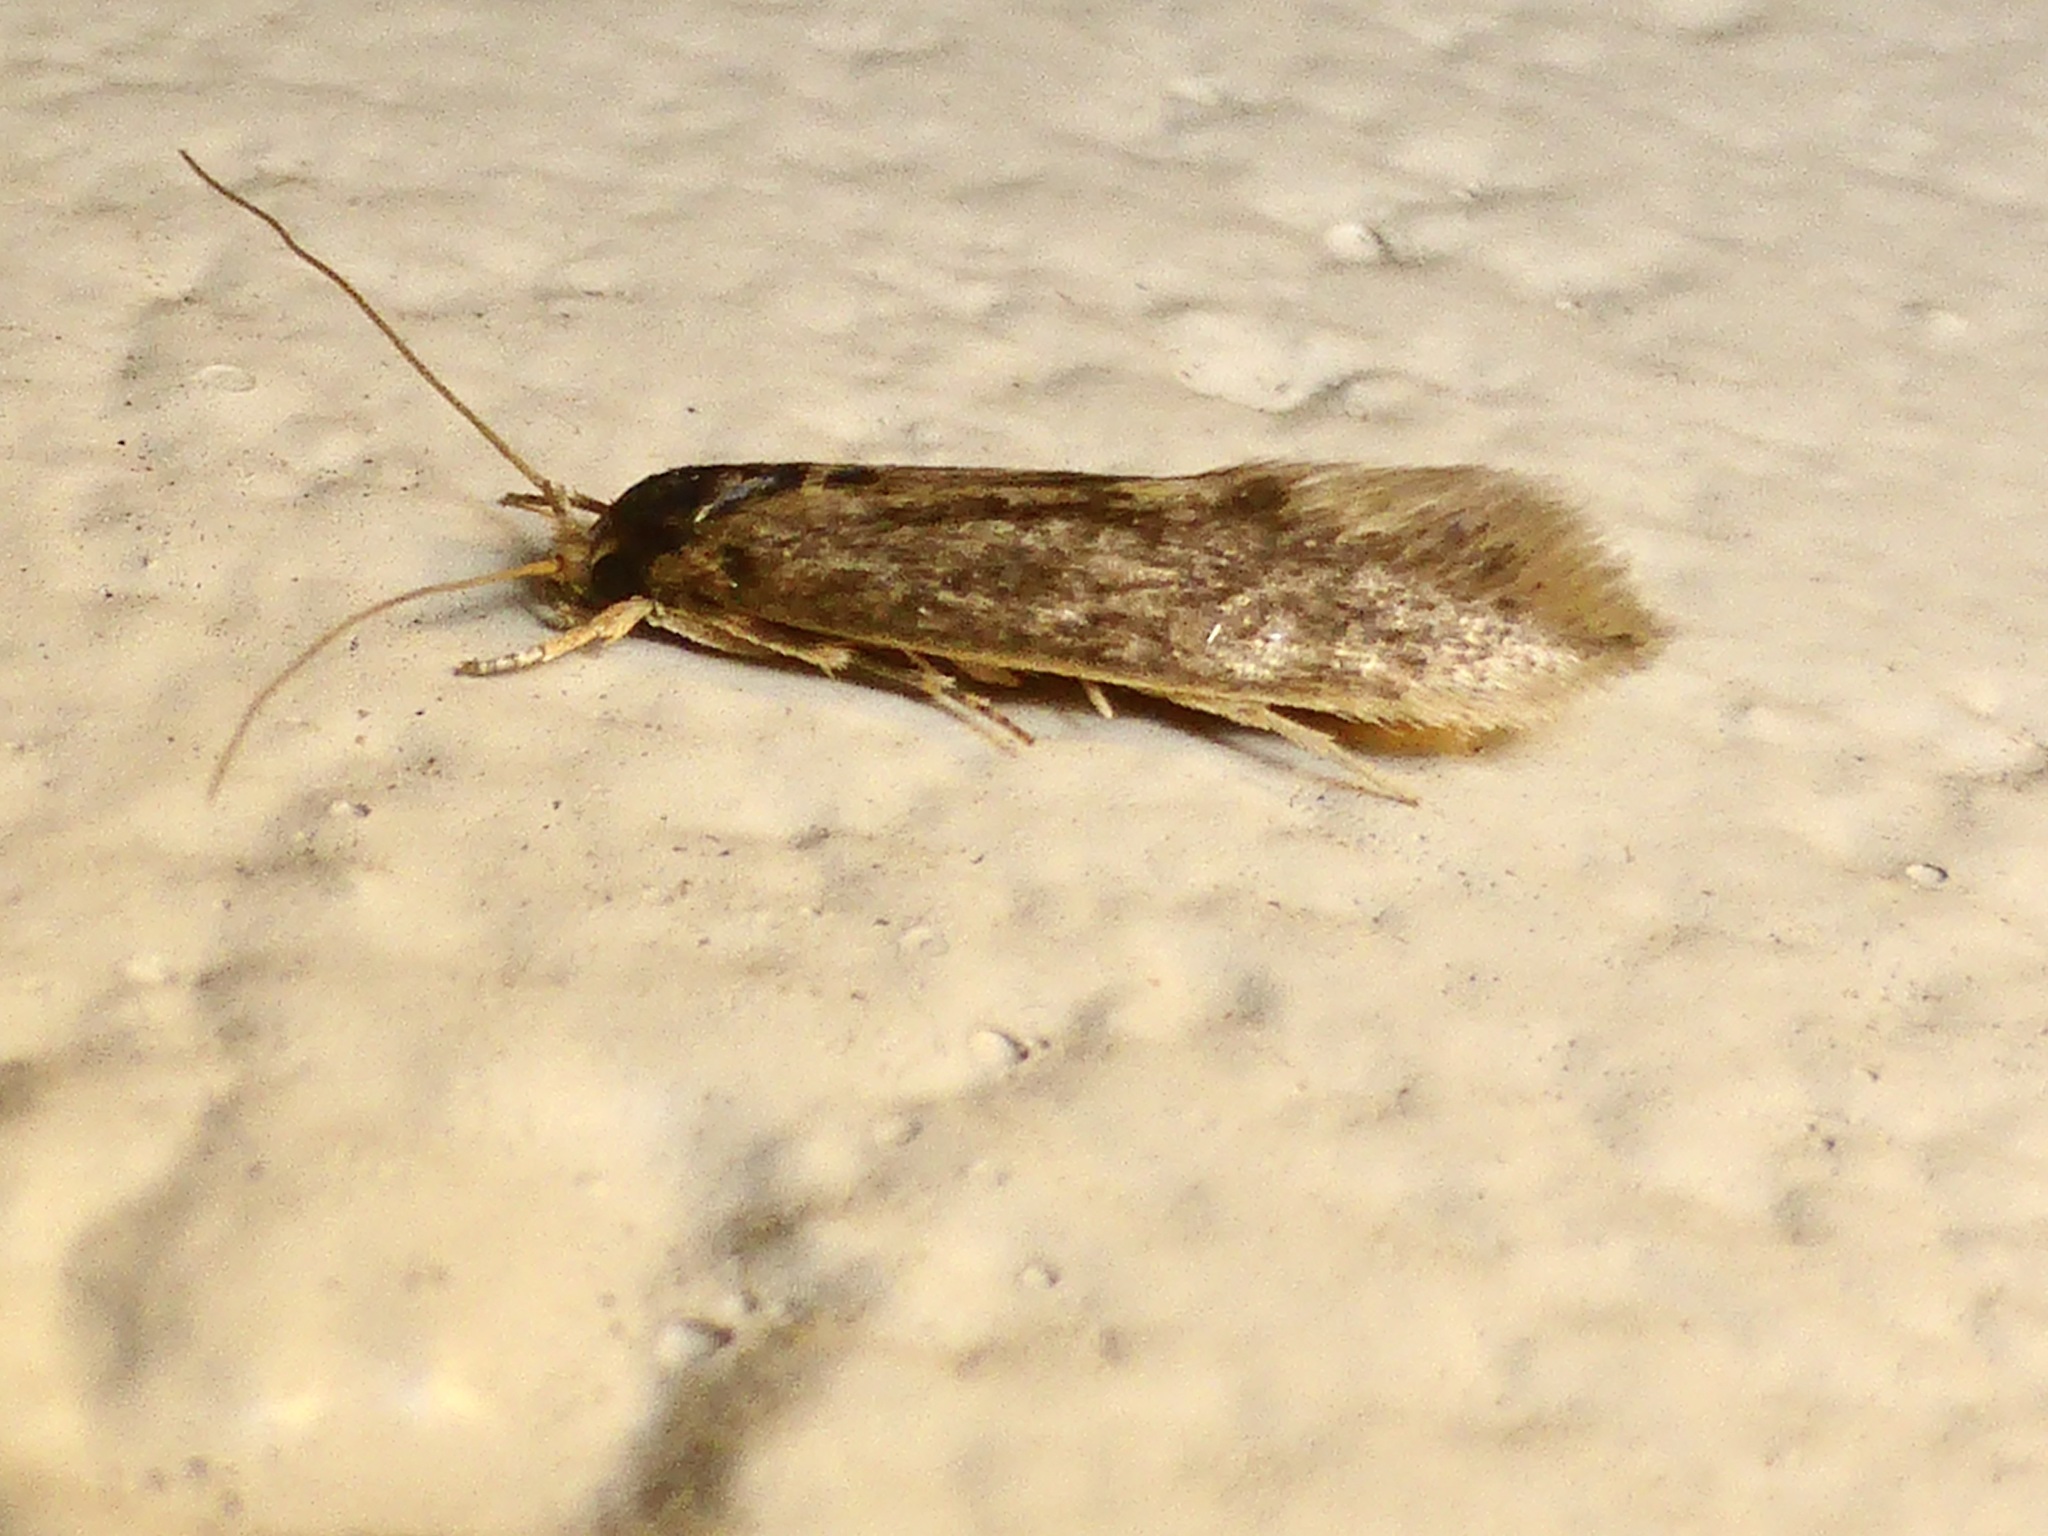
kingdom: Animalia
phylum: Arthropoda
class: Insecta
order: Lepidoptera
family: Tineidae
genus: Opogona
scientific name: Opogona omoscopa
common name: Moth
